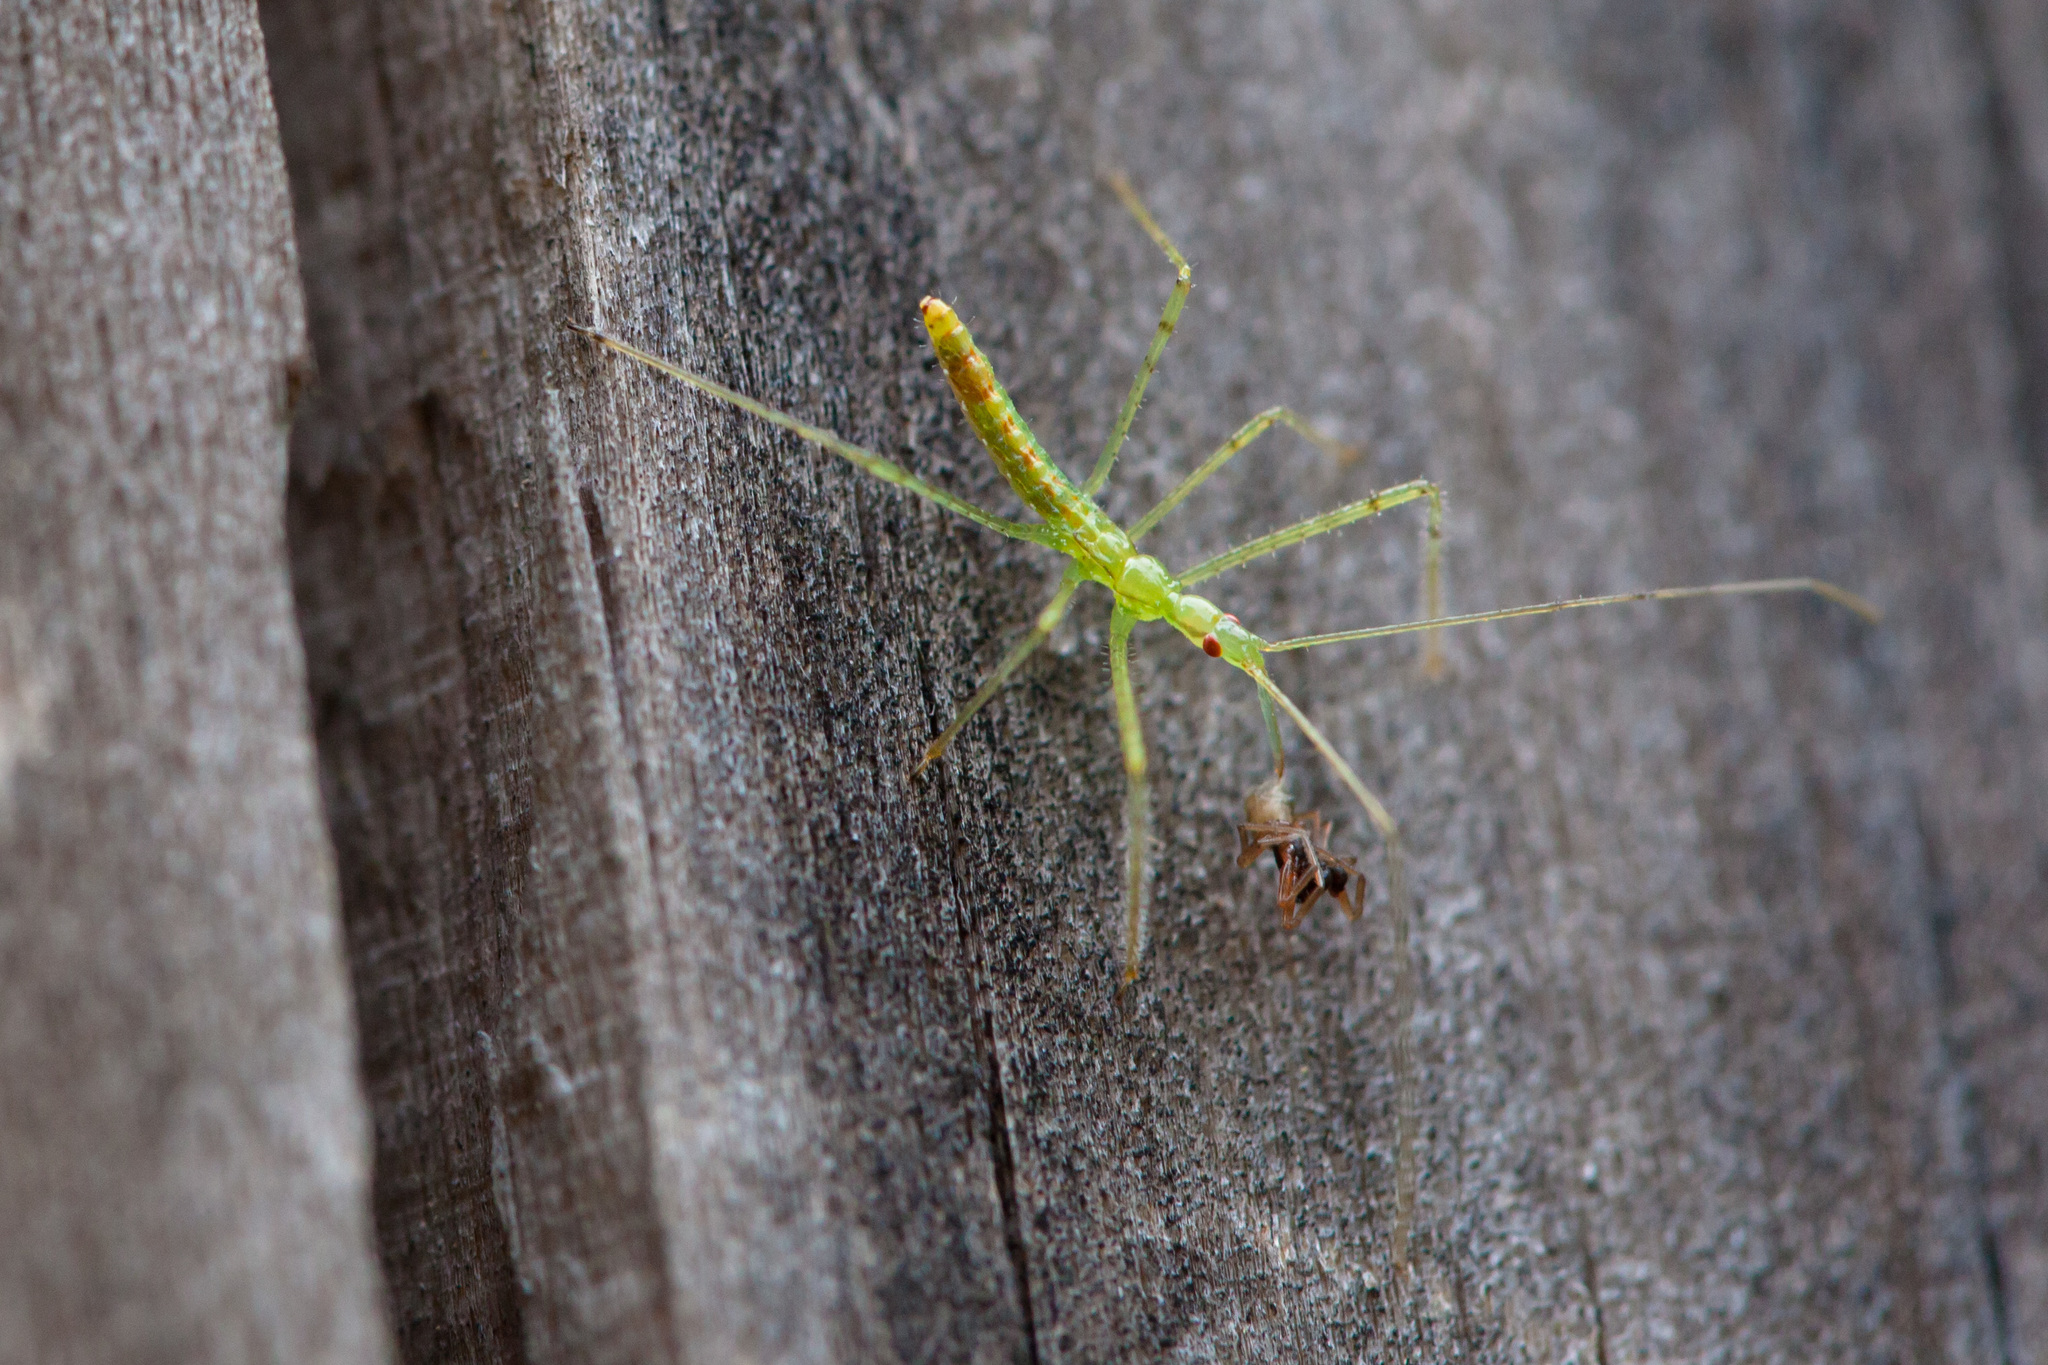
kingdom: Animalia
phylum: Arthropoda
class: Insecta
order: Hemiptera
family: Reduviidae
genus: Zelus
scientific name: Zelus luridus
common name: Pale green assassin bug
